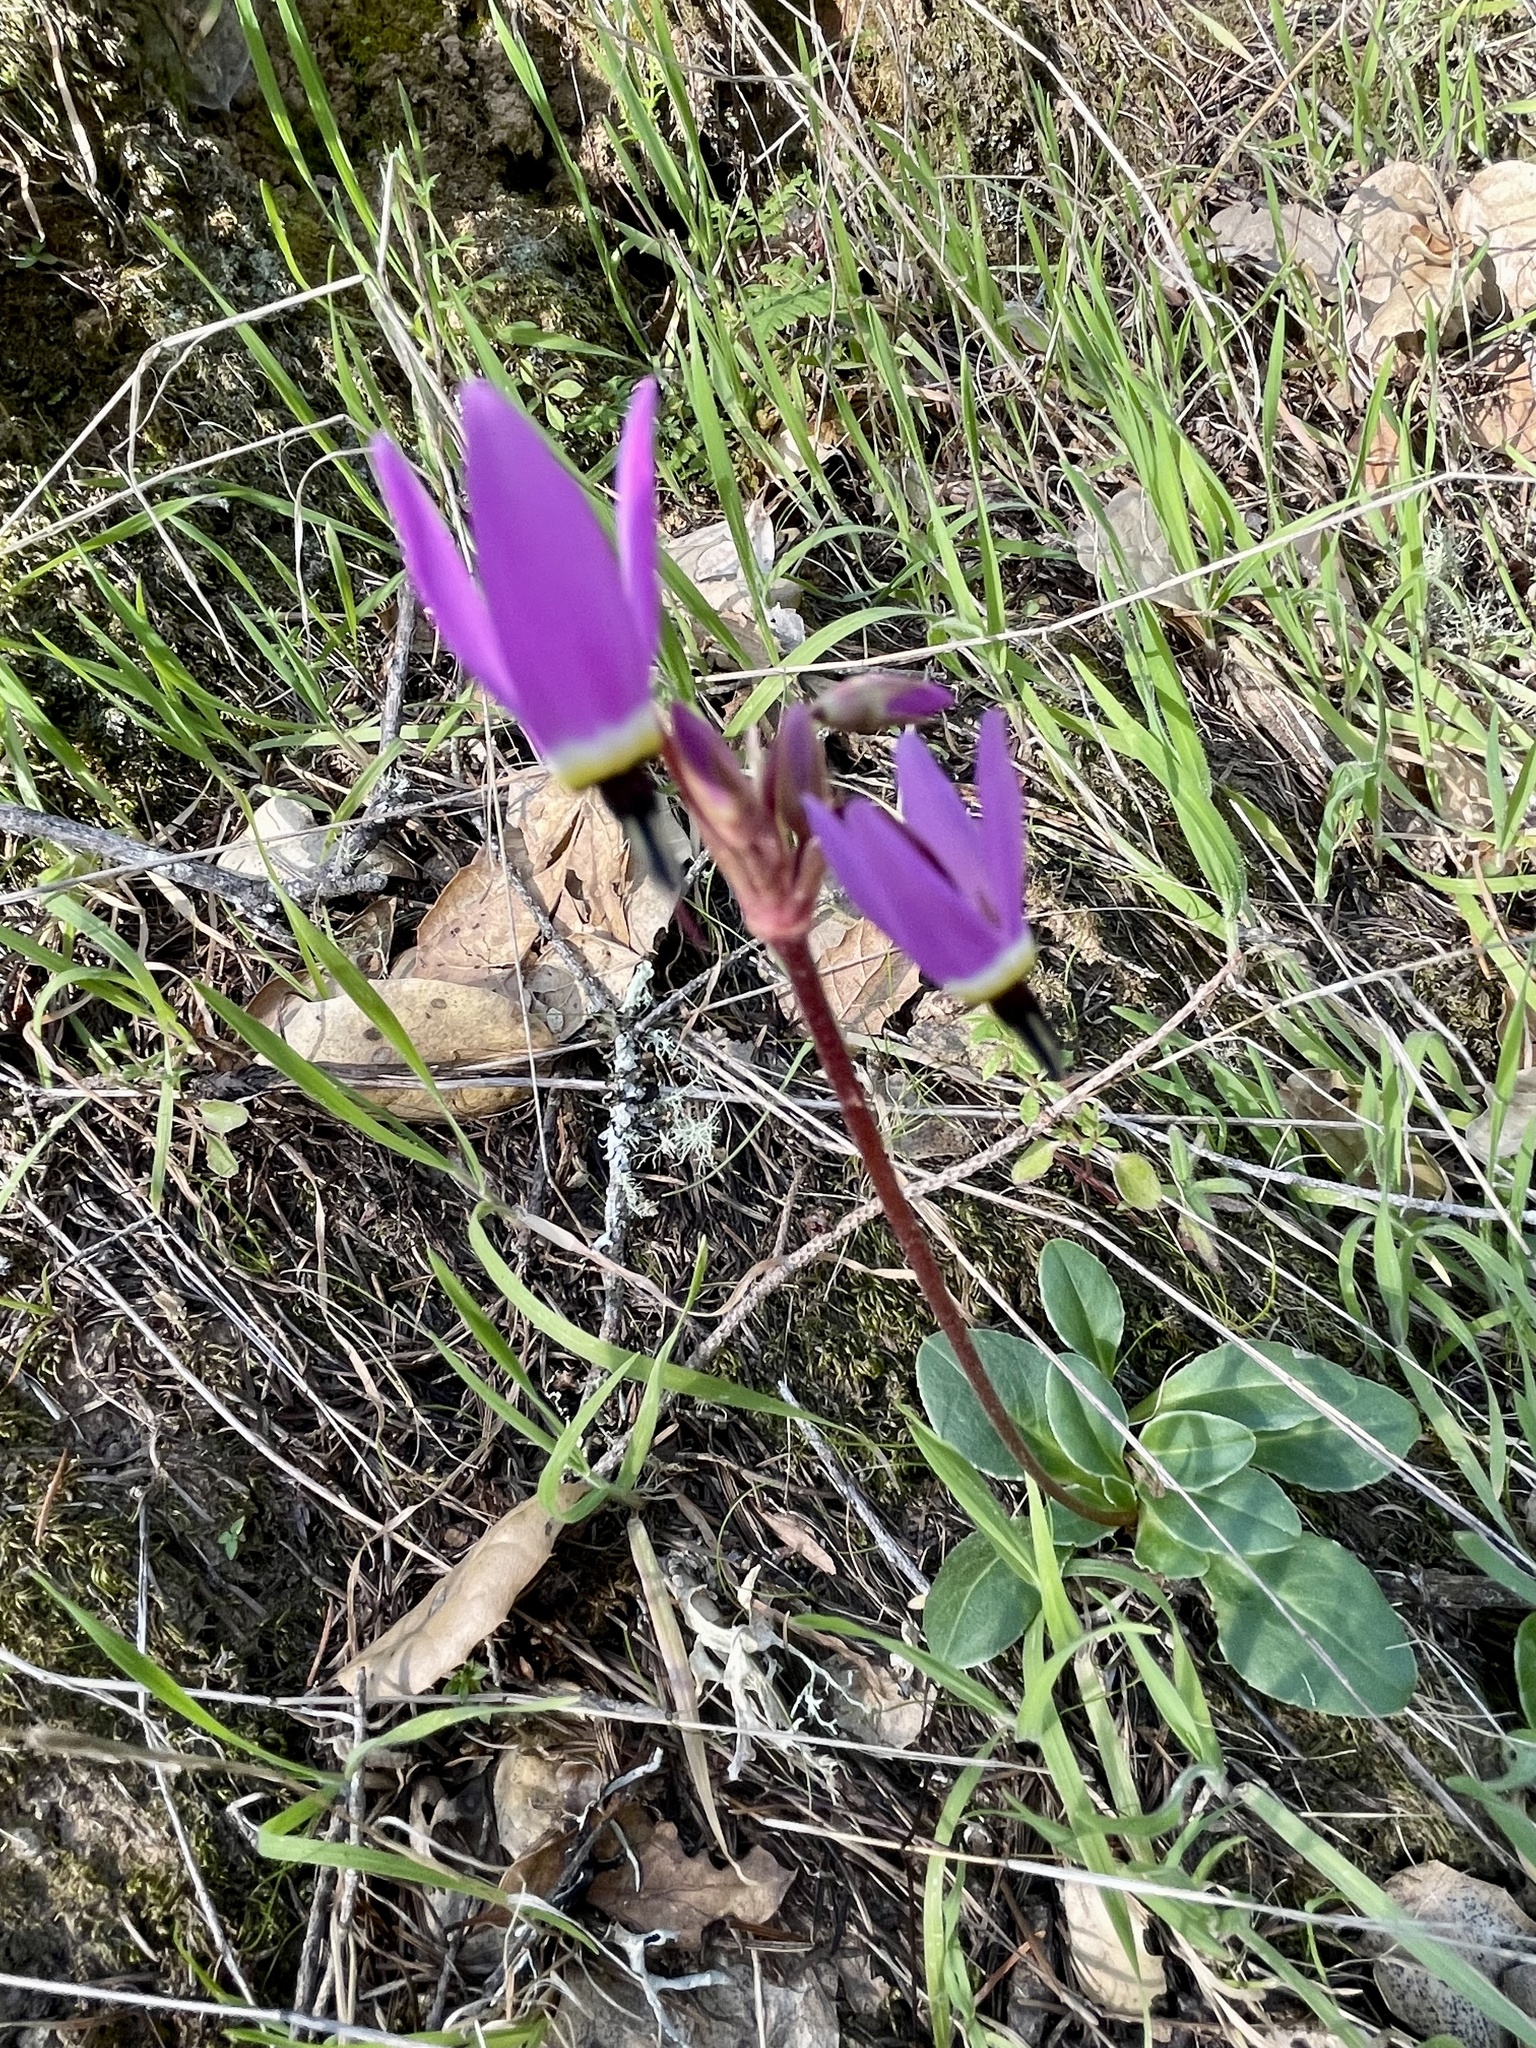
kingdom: Plantae
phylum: Tracheophyta
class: Magnoliopsida
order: Ericales
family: Primulaceae
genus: Dodecatheon
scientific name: Dodecatheon hendersonii
